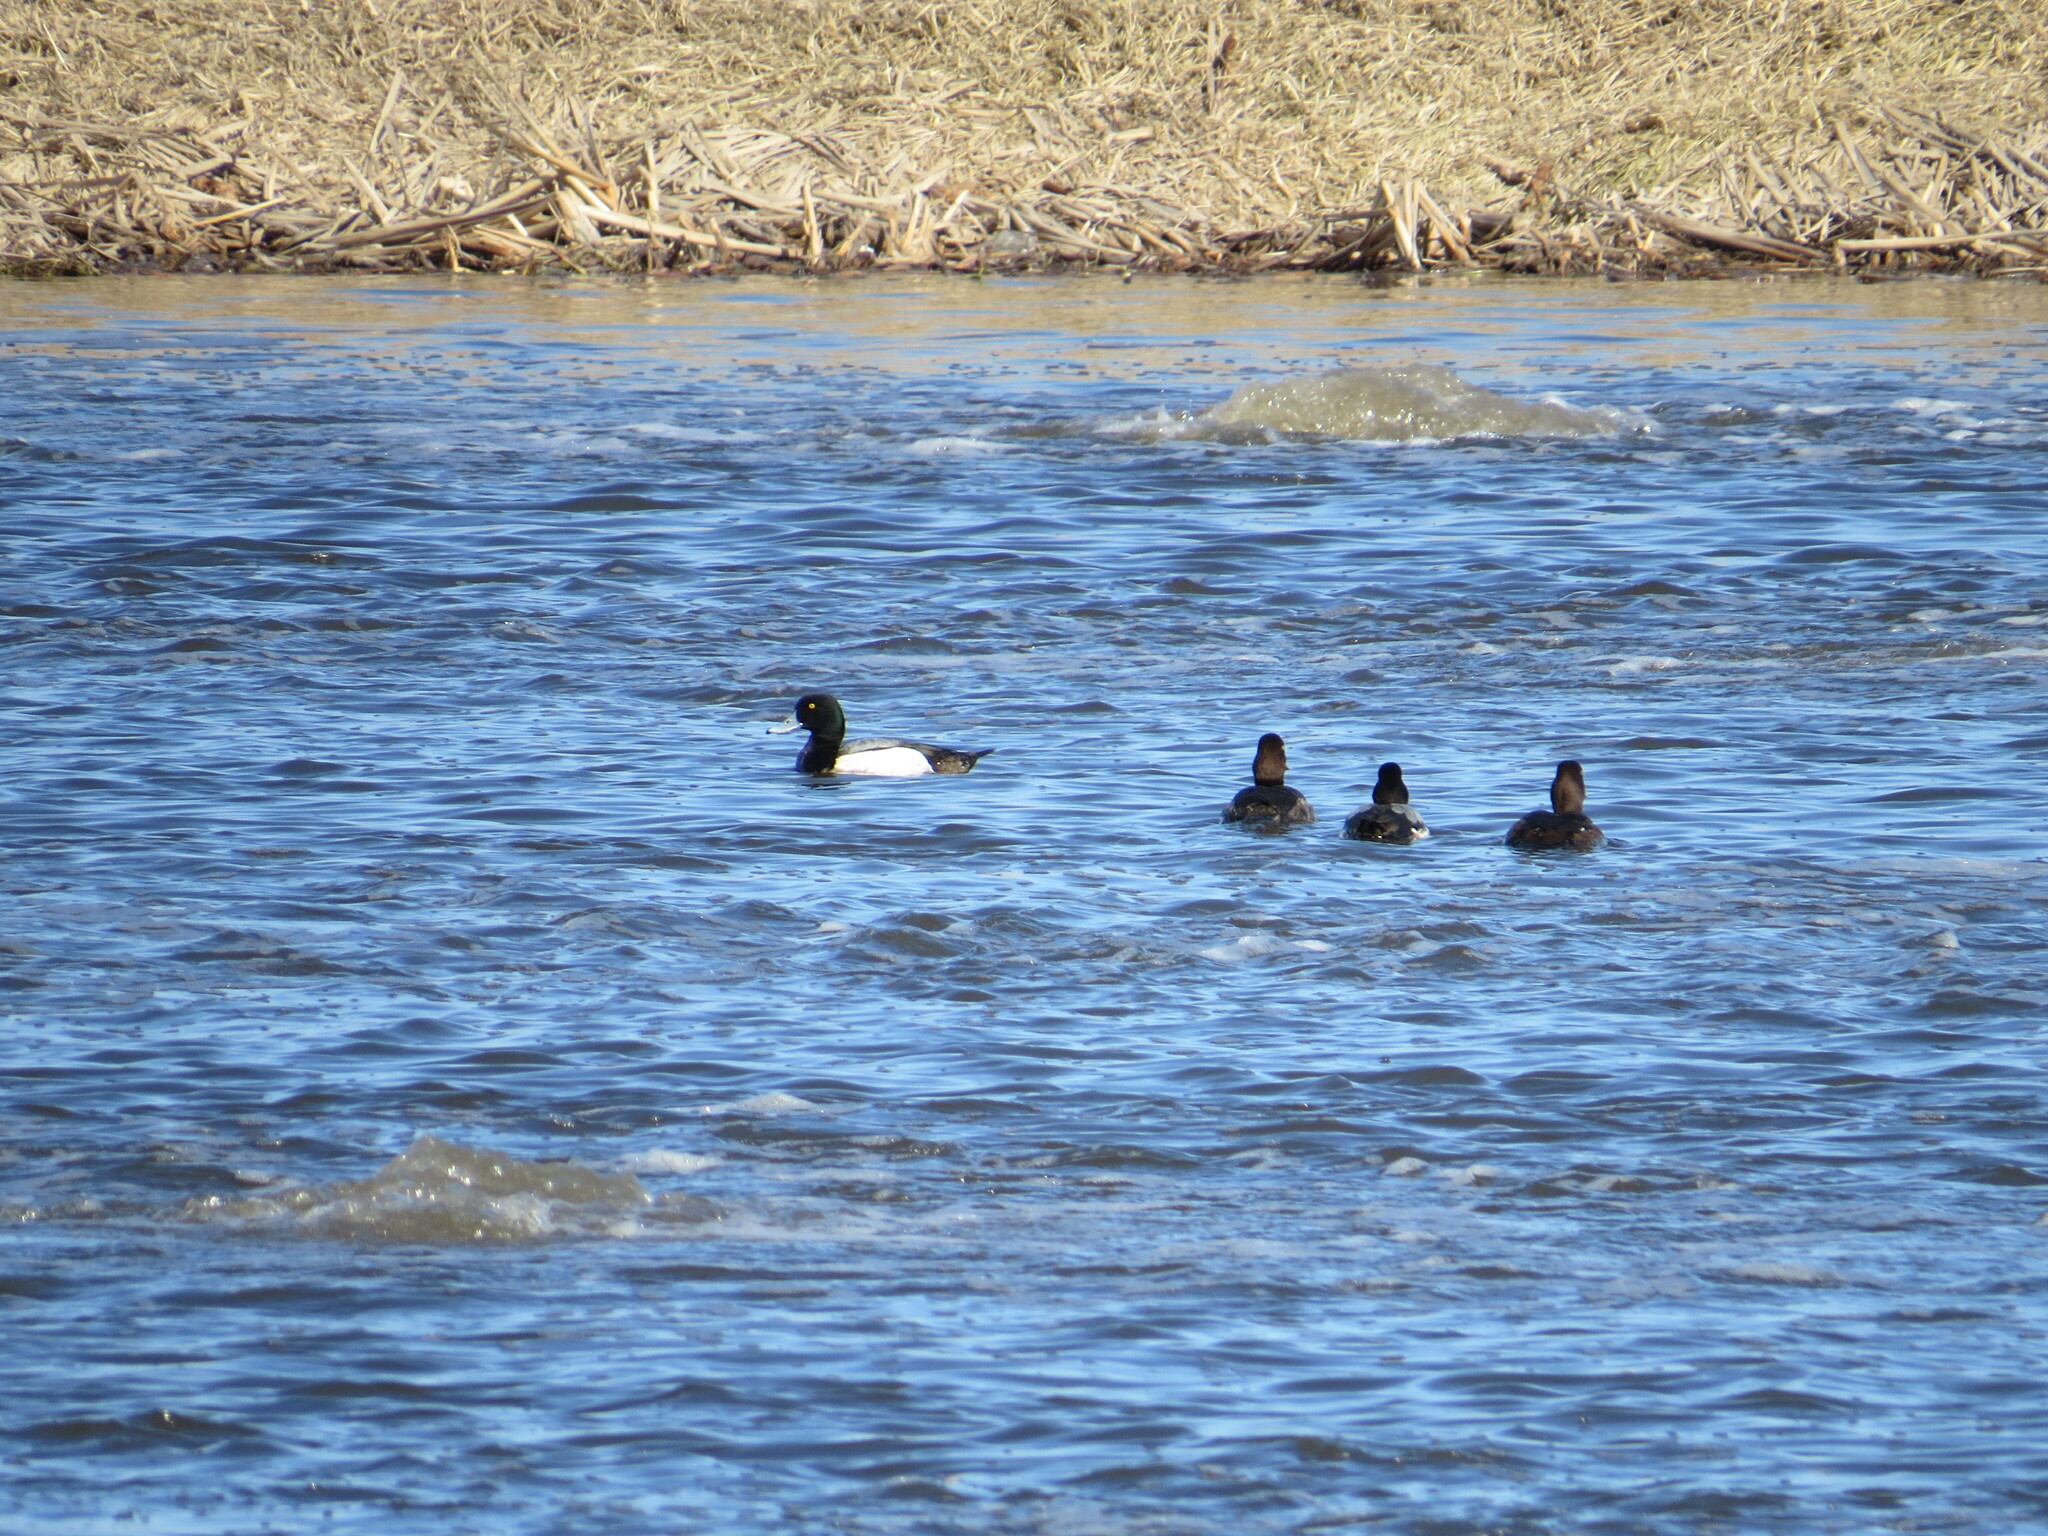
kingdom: Animalia
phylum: Chordata
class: Aves
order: Anseriformes
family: Anatidae
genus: Aythya
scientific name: Aythya marila
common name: Greater scaup
